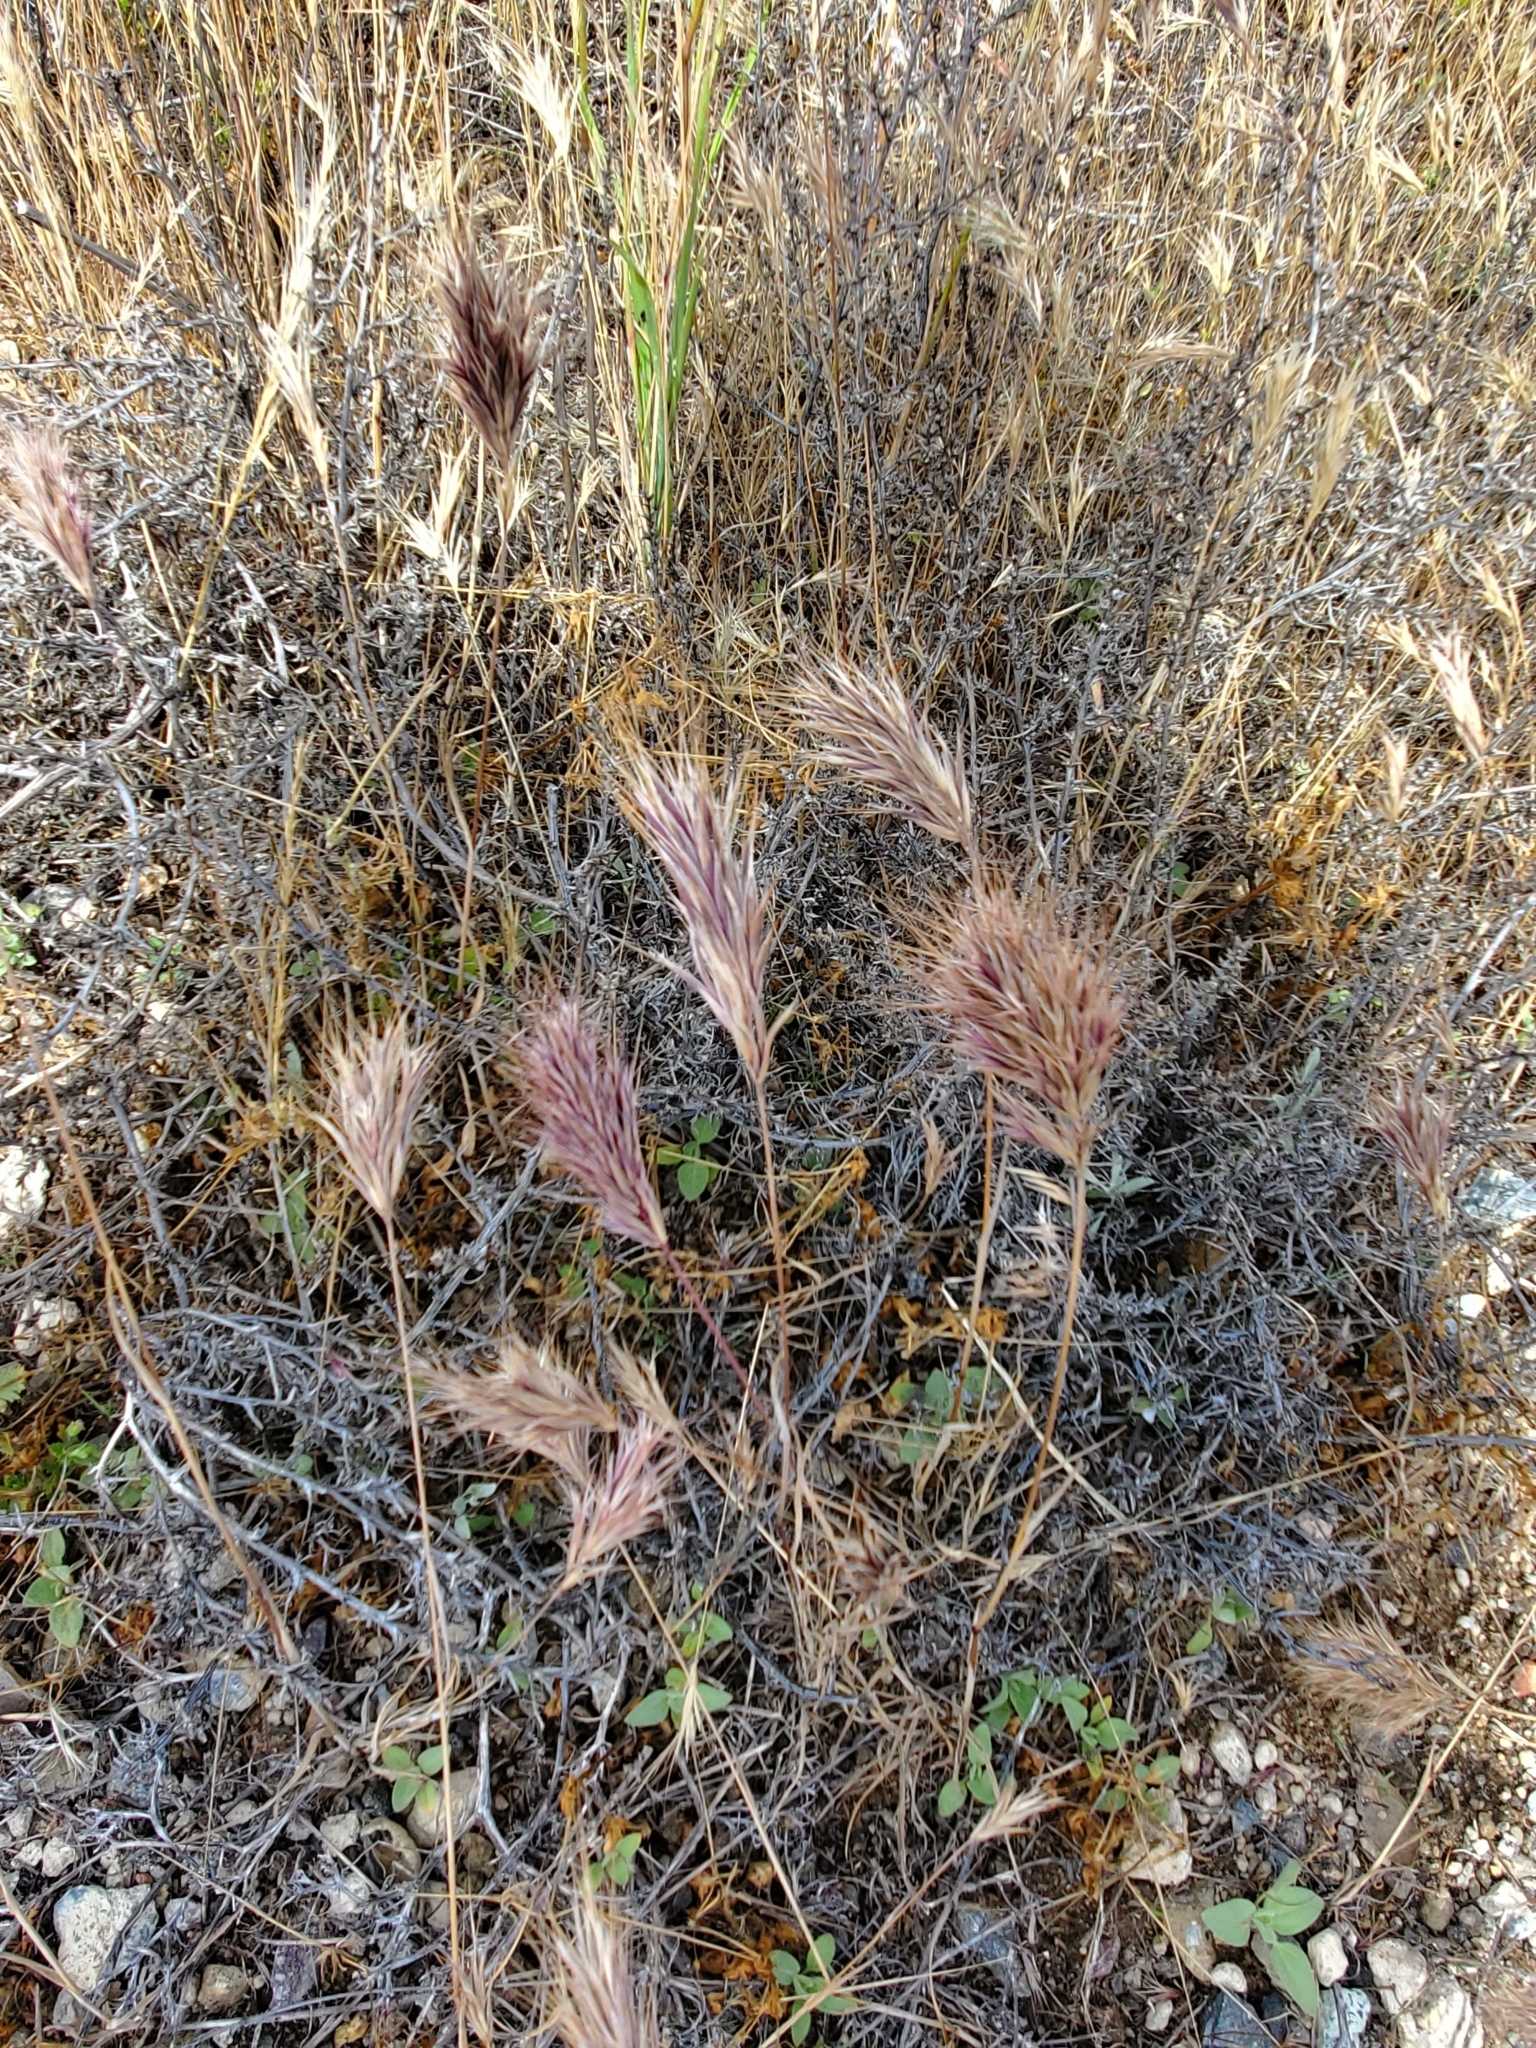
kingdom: Plantae
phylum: Tracheophyta
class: Liliopsida
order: Poales
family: Poaceae
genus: Bromus
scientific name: Bromus rubens
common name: Red brome
